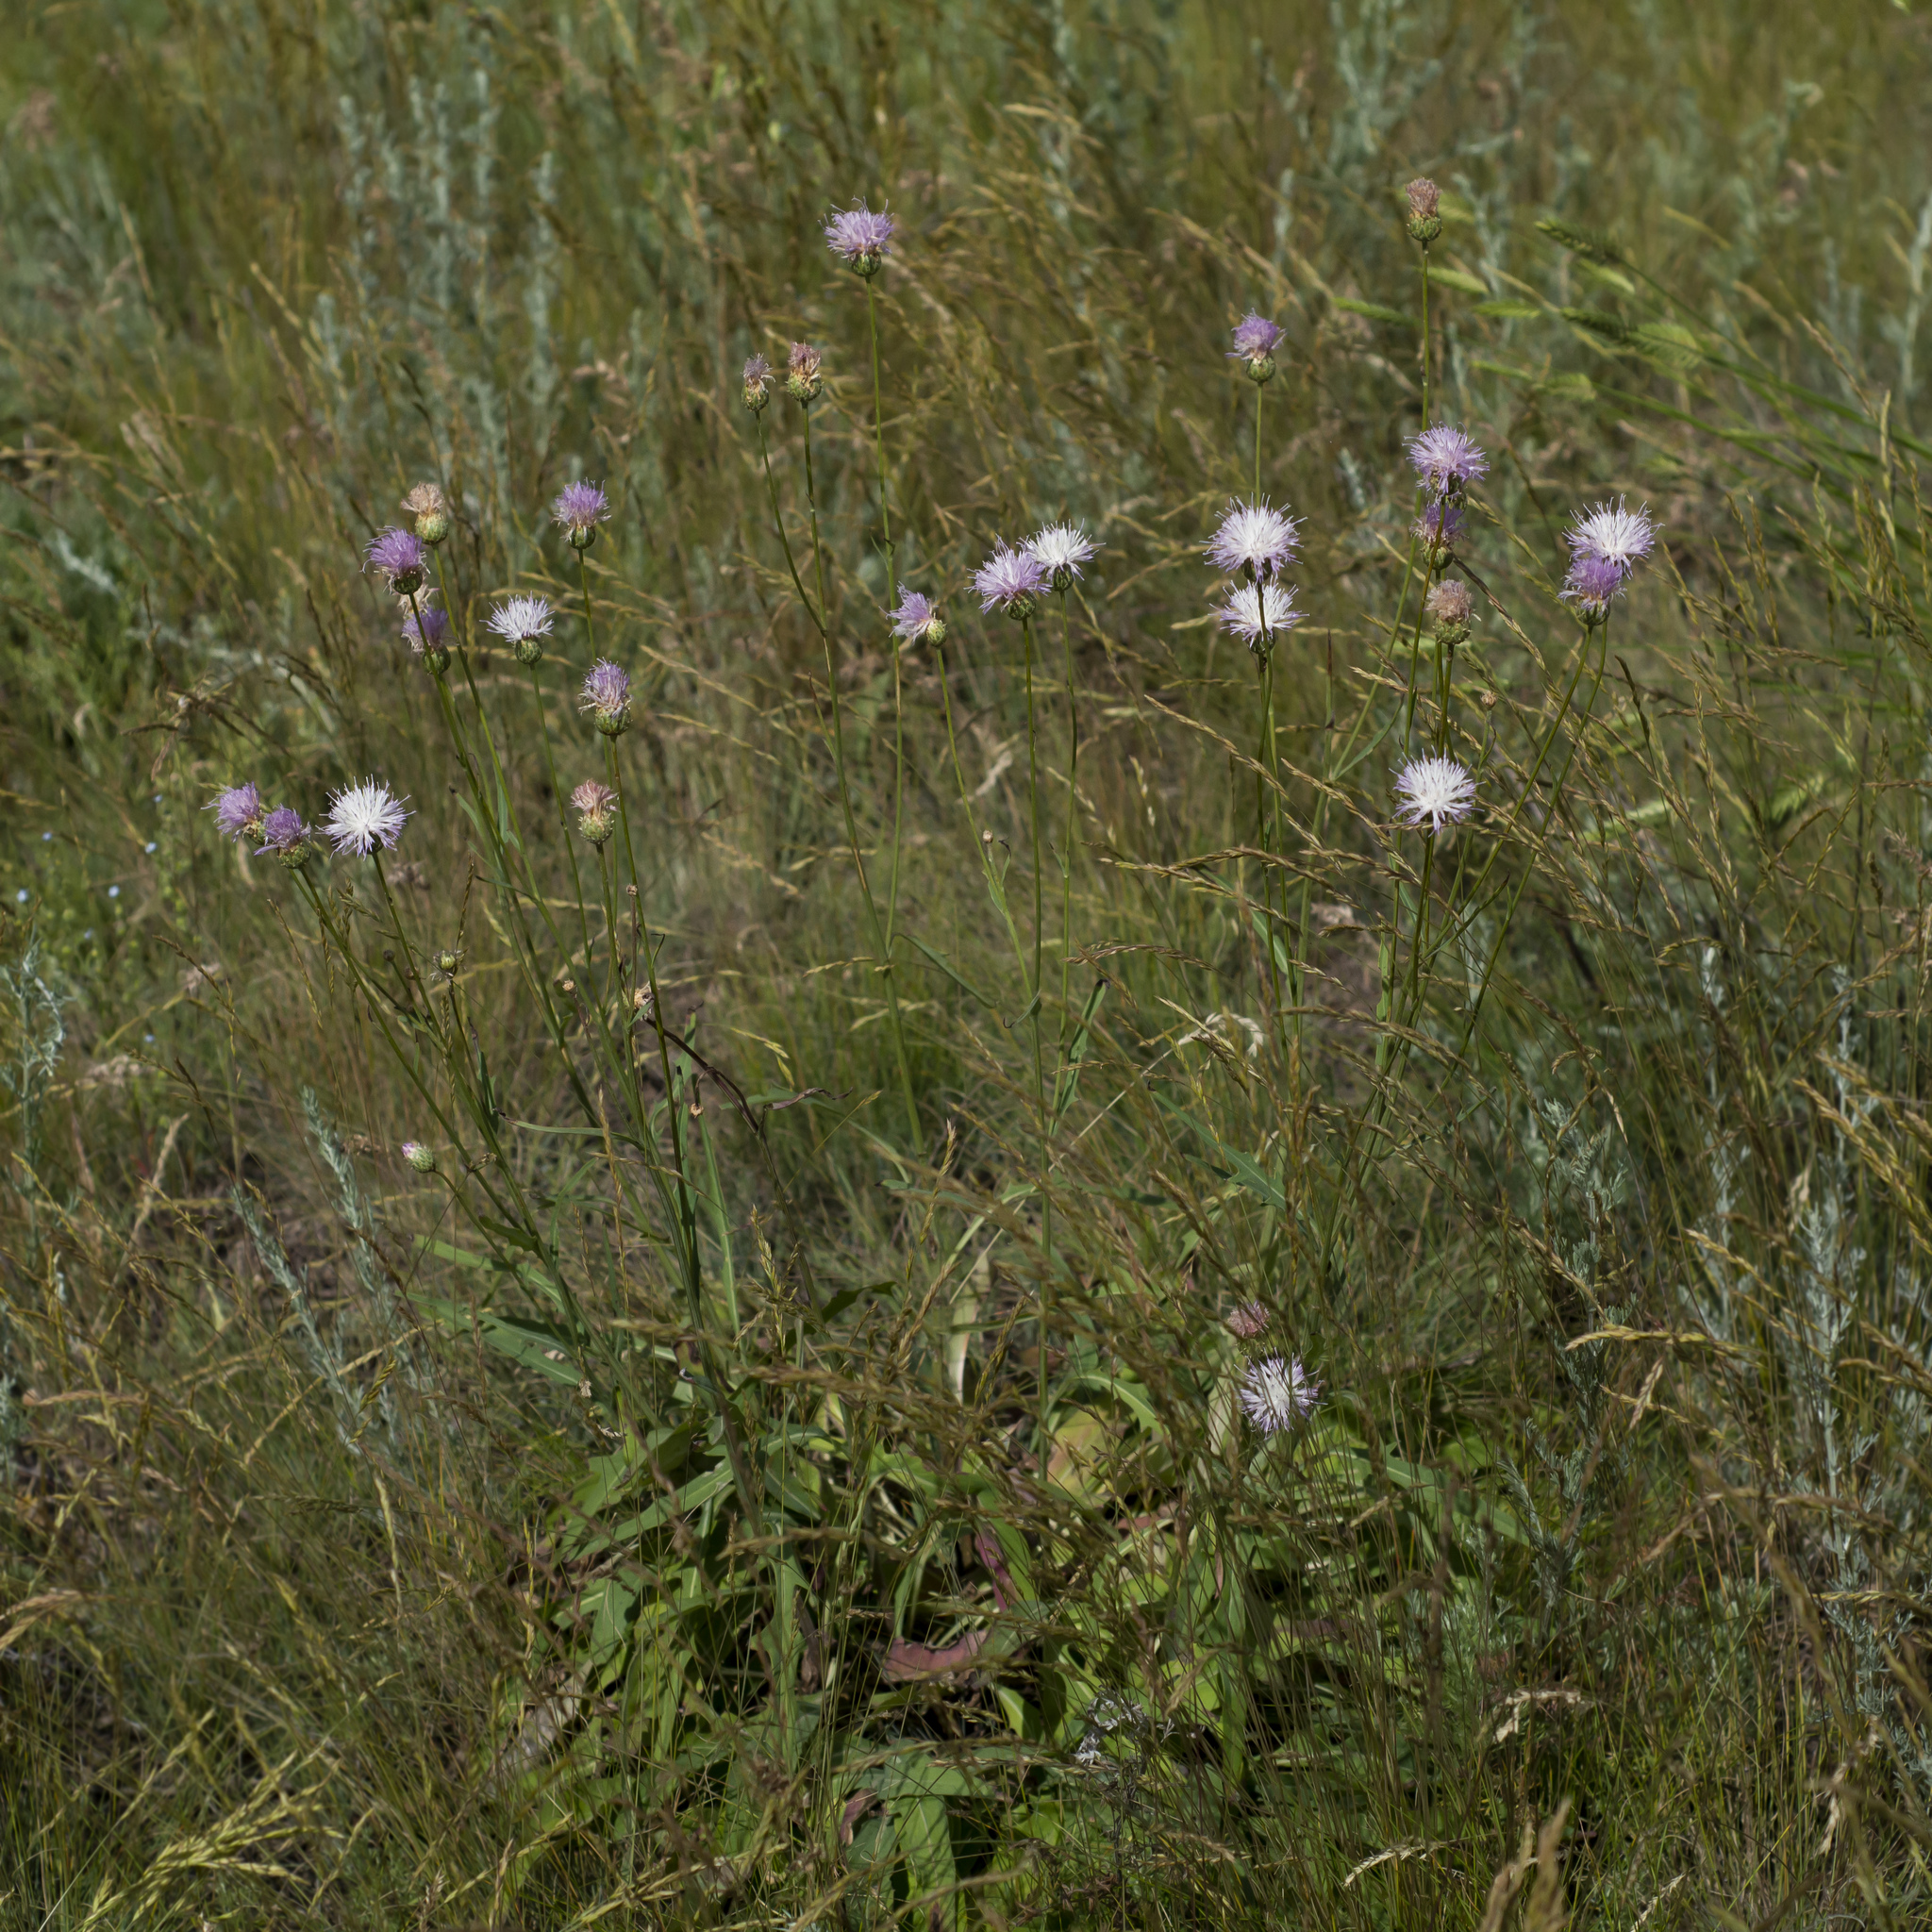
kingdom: Plantae
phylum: Tracheophyta
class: Magnoliopsida
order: Asterales
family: Asteraceae
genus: Klasea
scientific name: Klasea cardunculus
